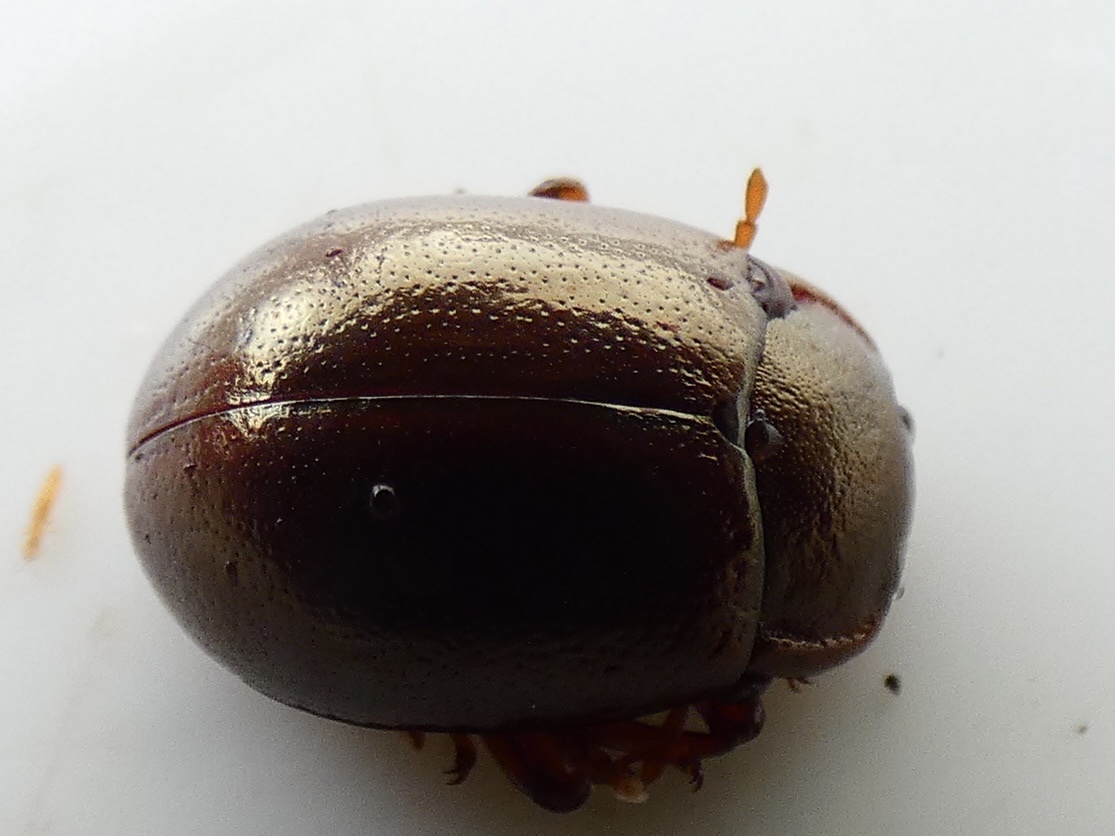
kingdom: Animalia
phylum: Arthropoda
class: Insecta
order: Coleoptera
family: Chrysomelidae
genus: Chrysolina
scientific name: Chrysolina staphylaea
